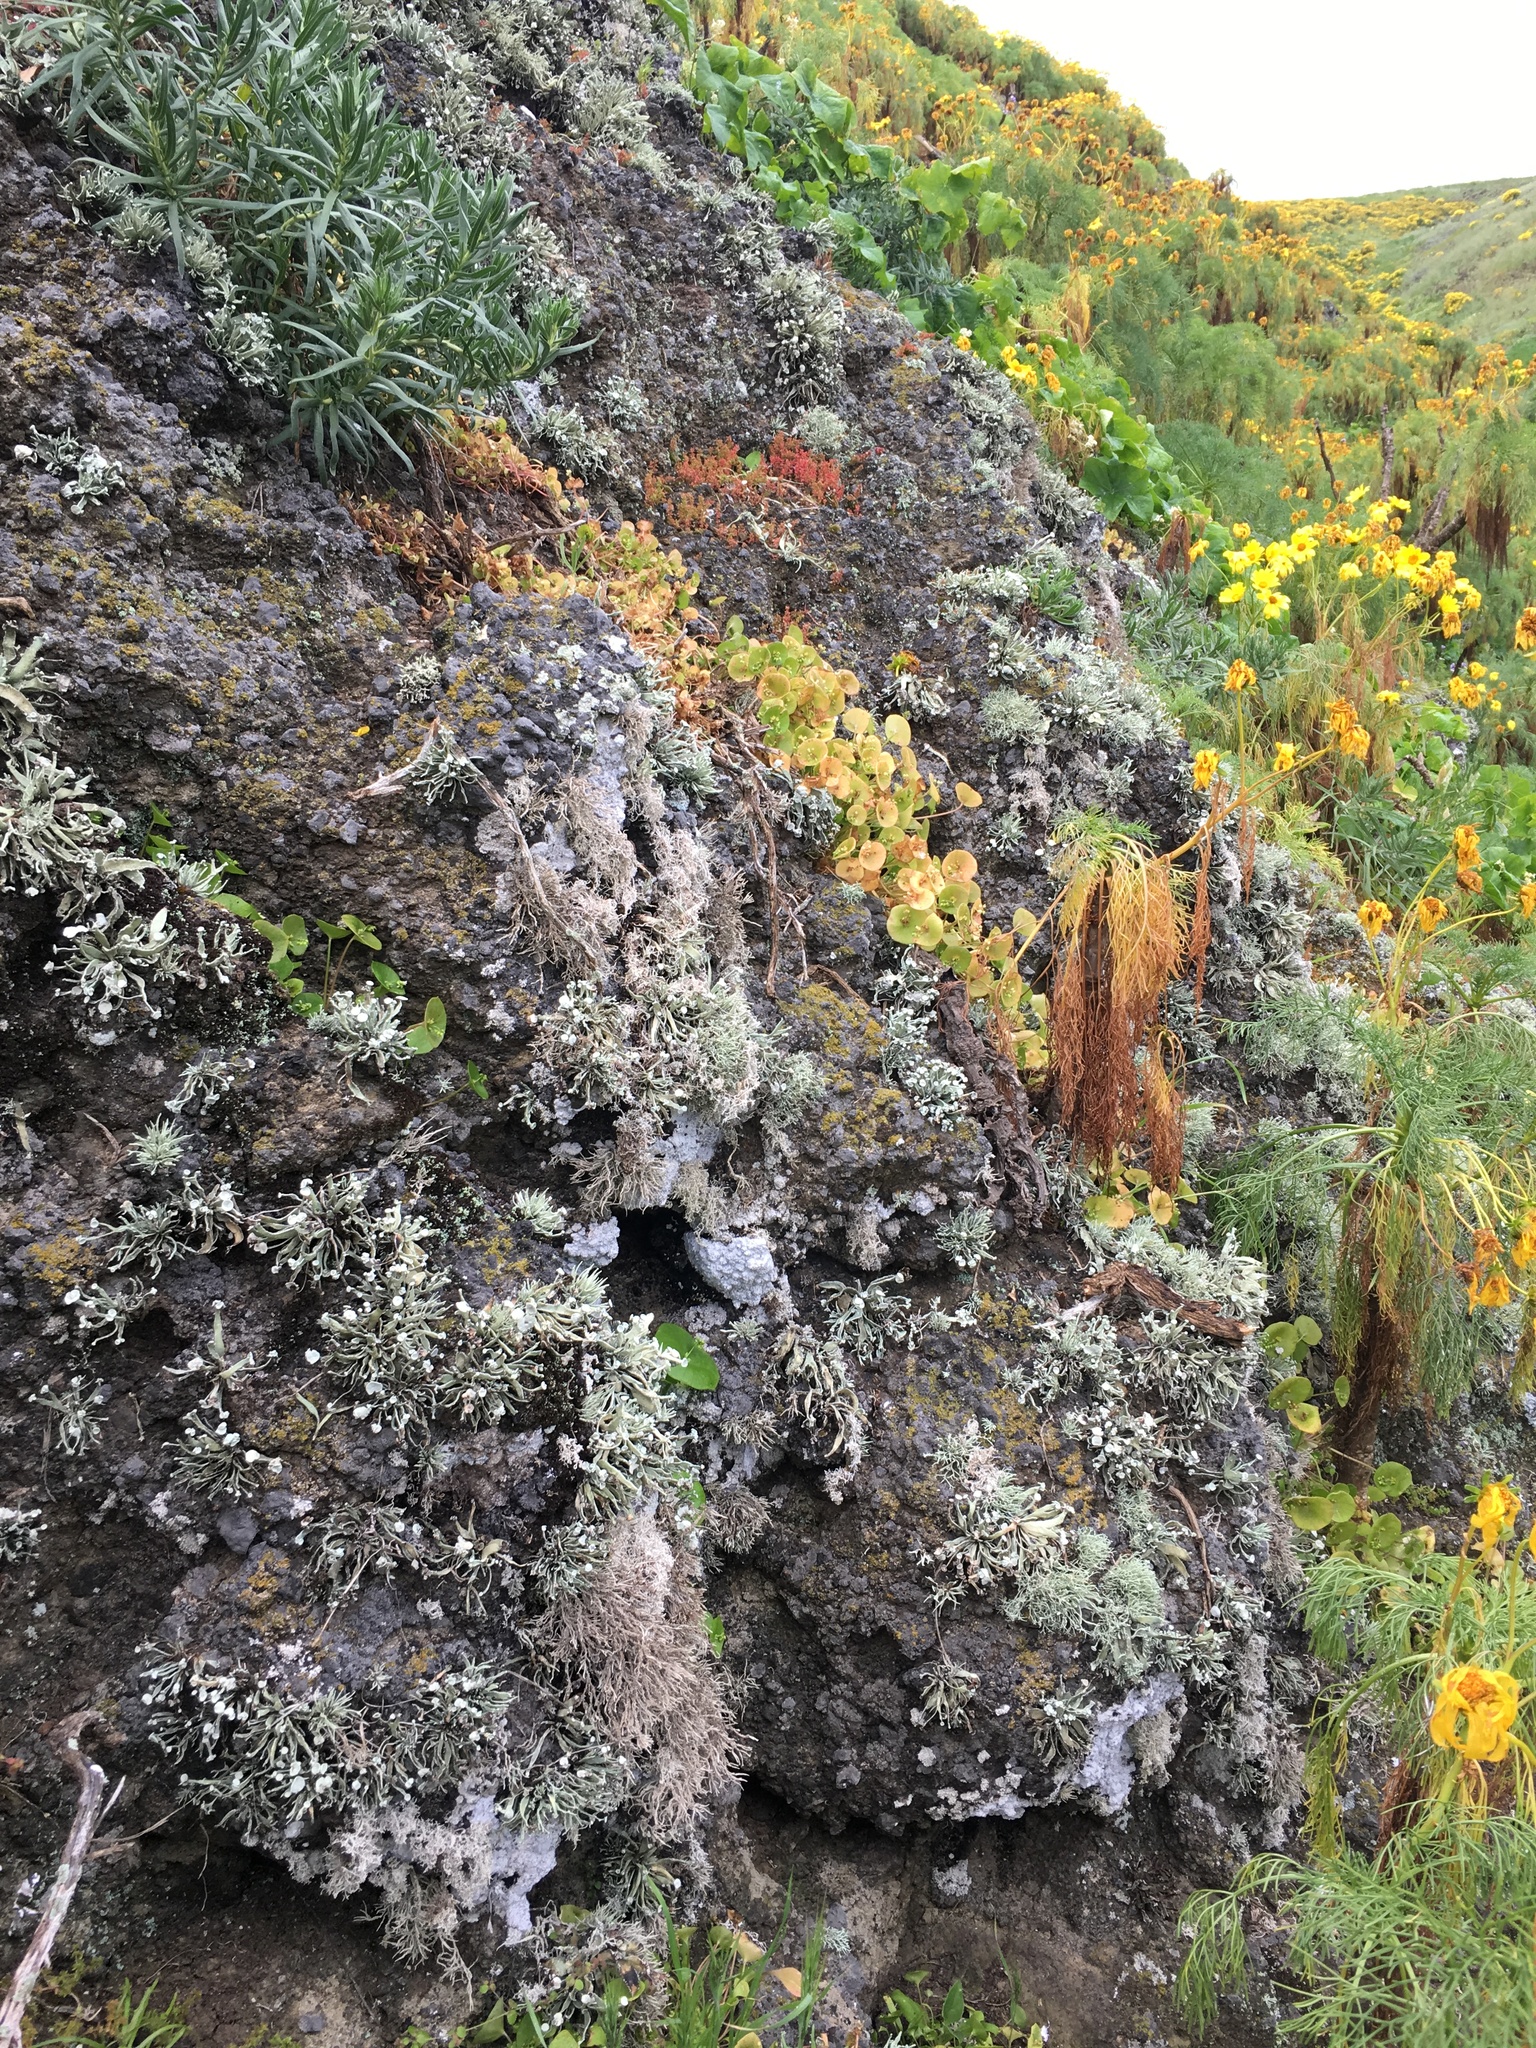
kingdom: Plantae
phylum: Tracheophyta
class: Magnoliopsida
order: Asterales
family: Asteraceae
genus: Coreopsis
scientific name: Coreopsis gigantea
